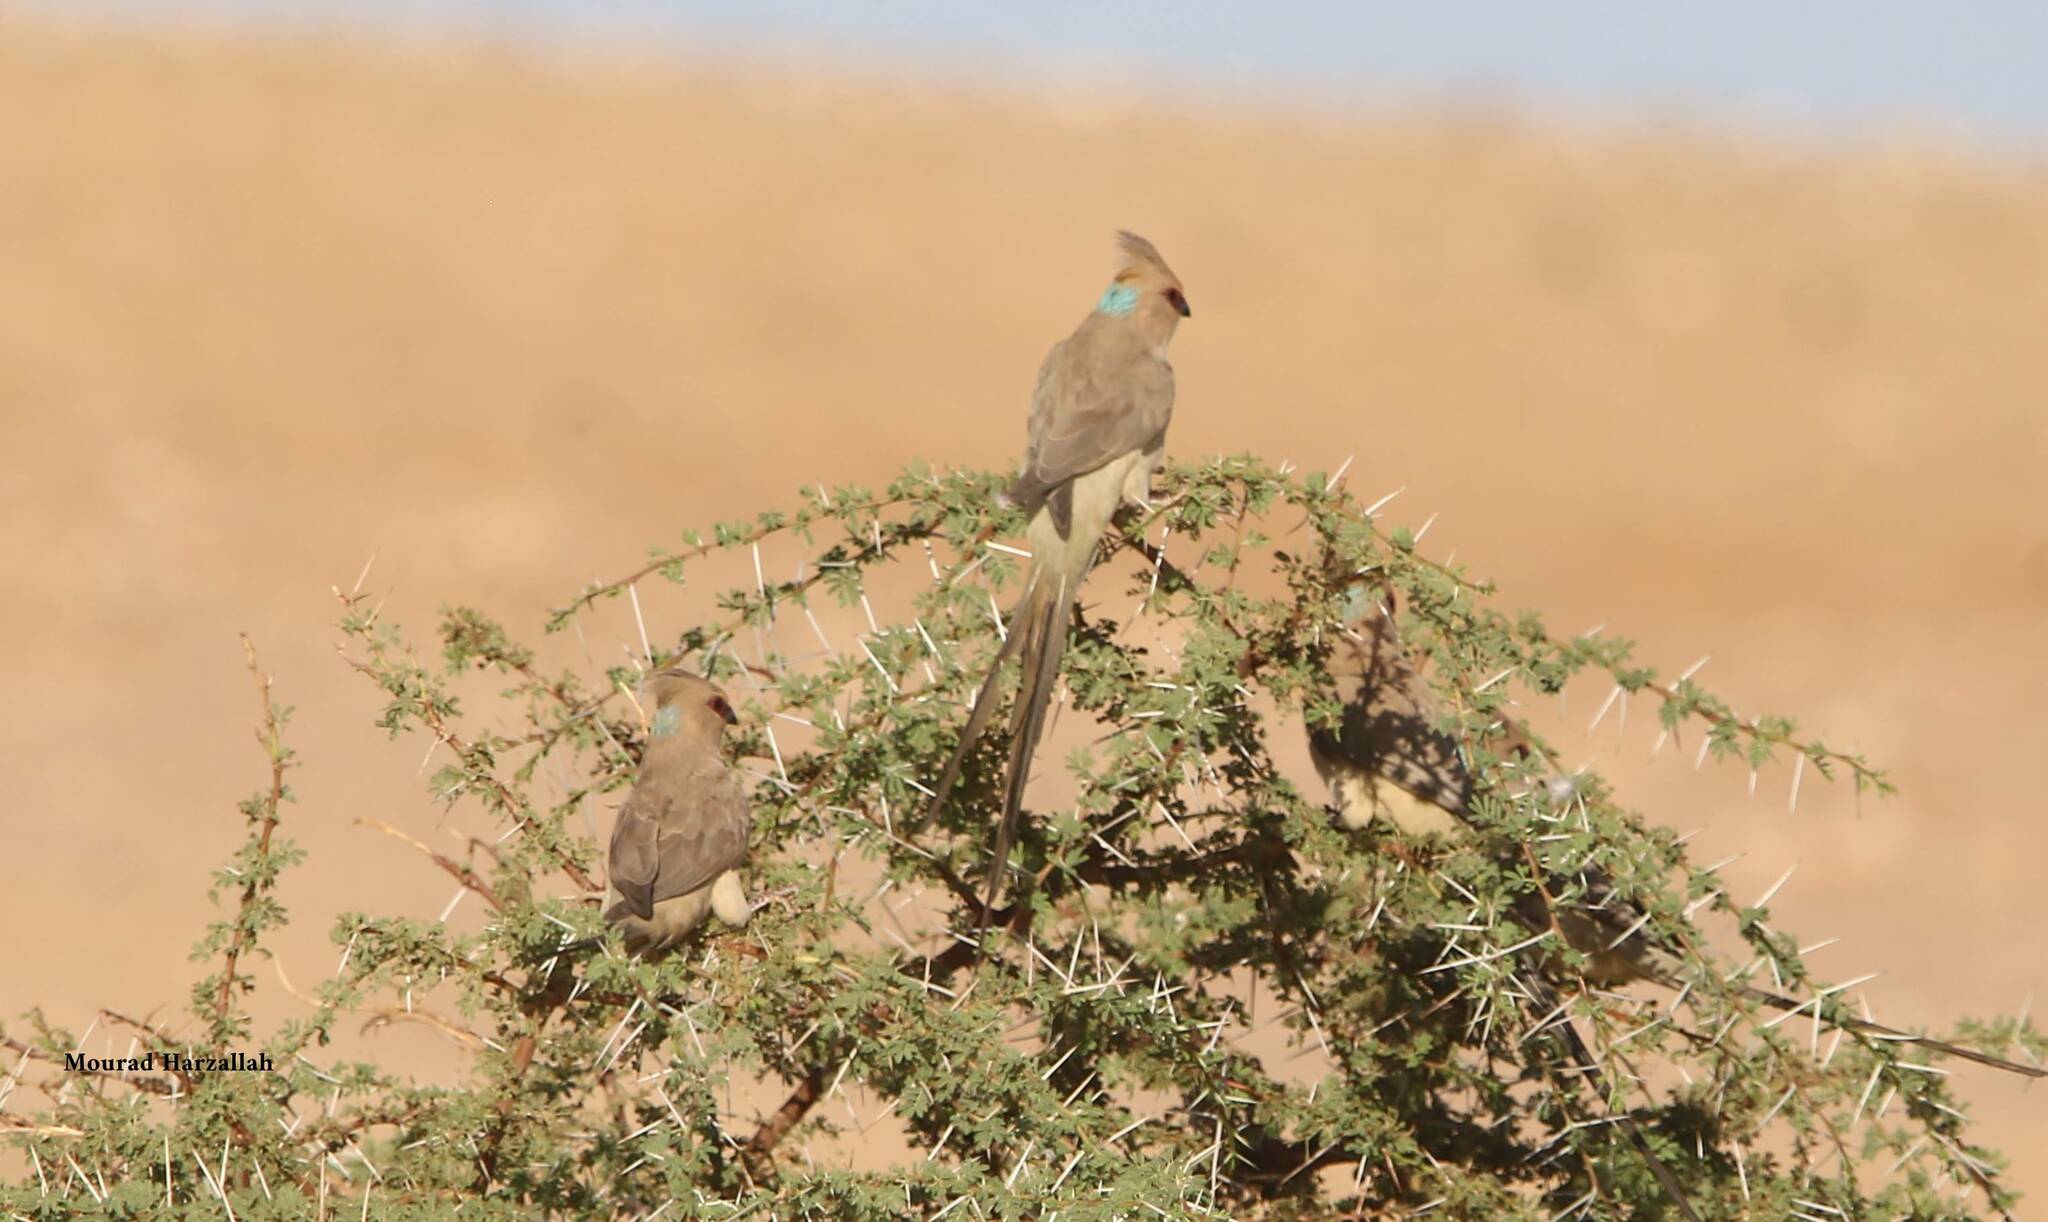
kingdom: Animalia
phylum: Chordata
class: Aves
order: Coliiformes
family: Coliidae
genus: Urocolius
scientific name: Urocolius macrourus
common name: Blue-naped mousebird
